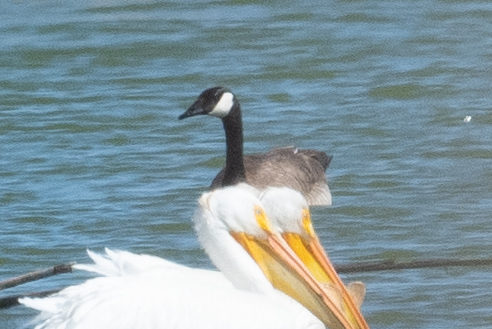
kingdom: Animalia
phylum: Chordata
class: Aves
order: Anseriformes
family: Anatidae
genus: Branta
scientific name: Branta canadensis
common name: Canada goose
